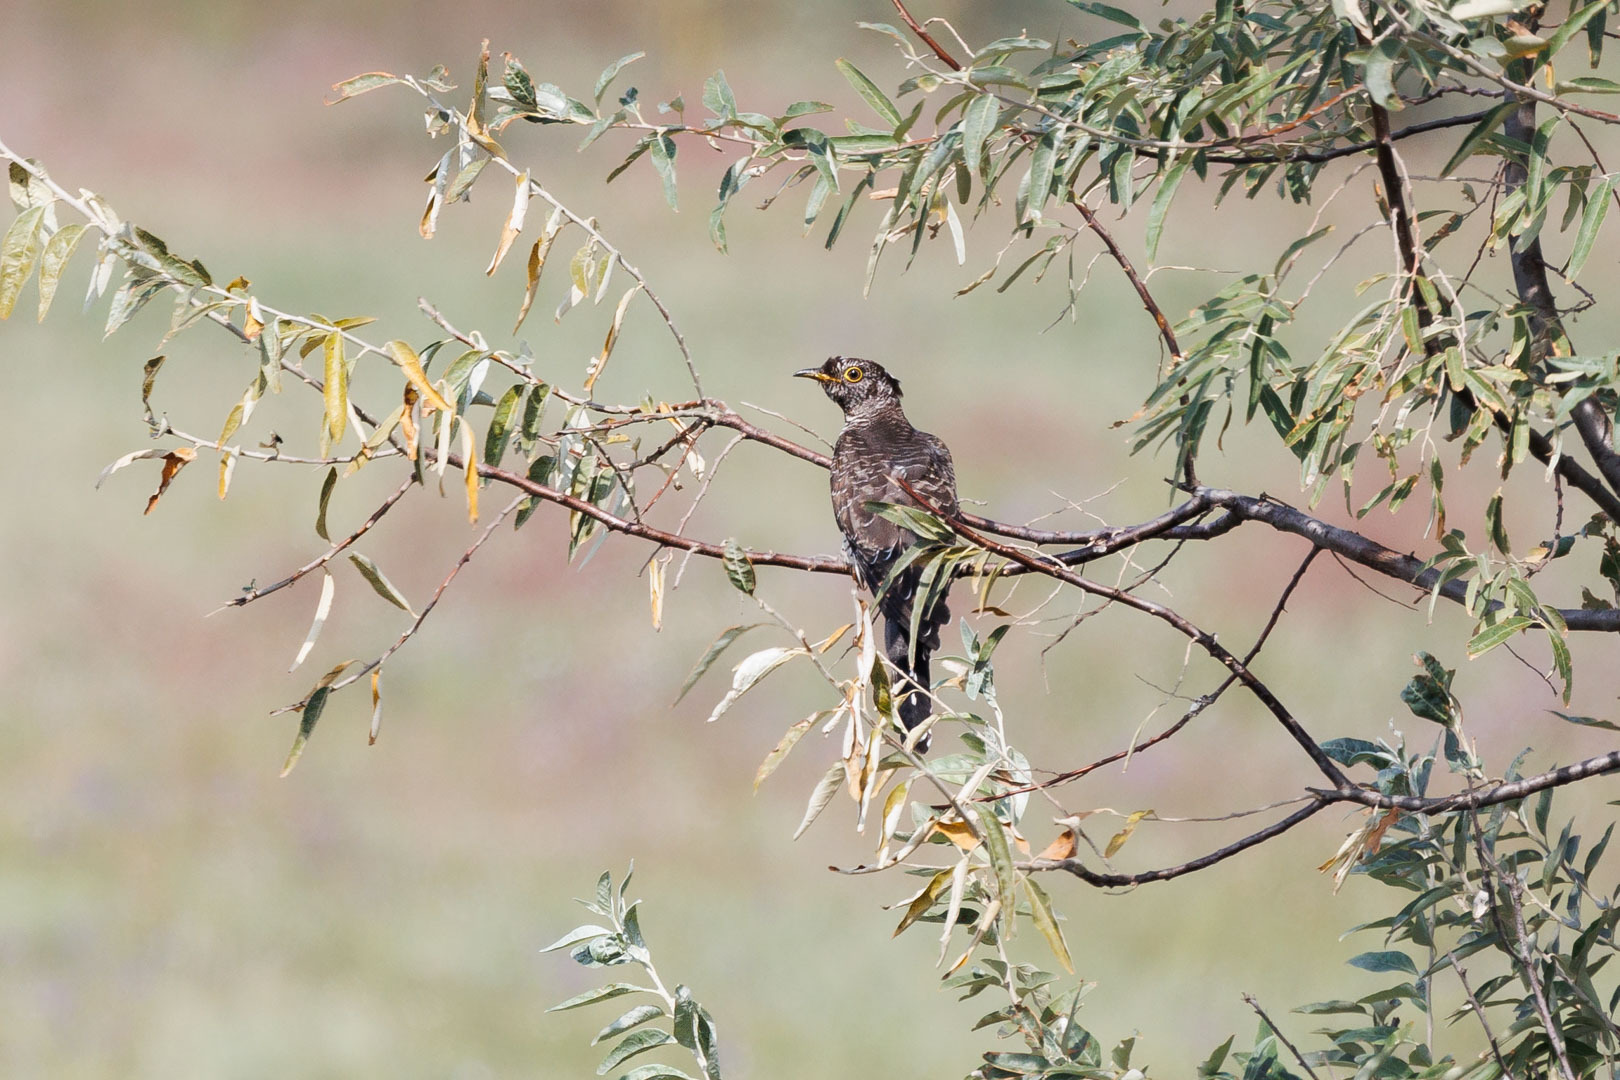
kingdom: Animalia
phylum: Chordata
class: Aves
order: Cuculiformes
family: Cuculidae
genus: Cuculus
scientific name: Cuculus canorus
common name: Common cuckoo
